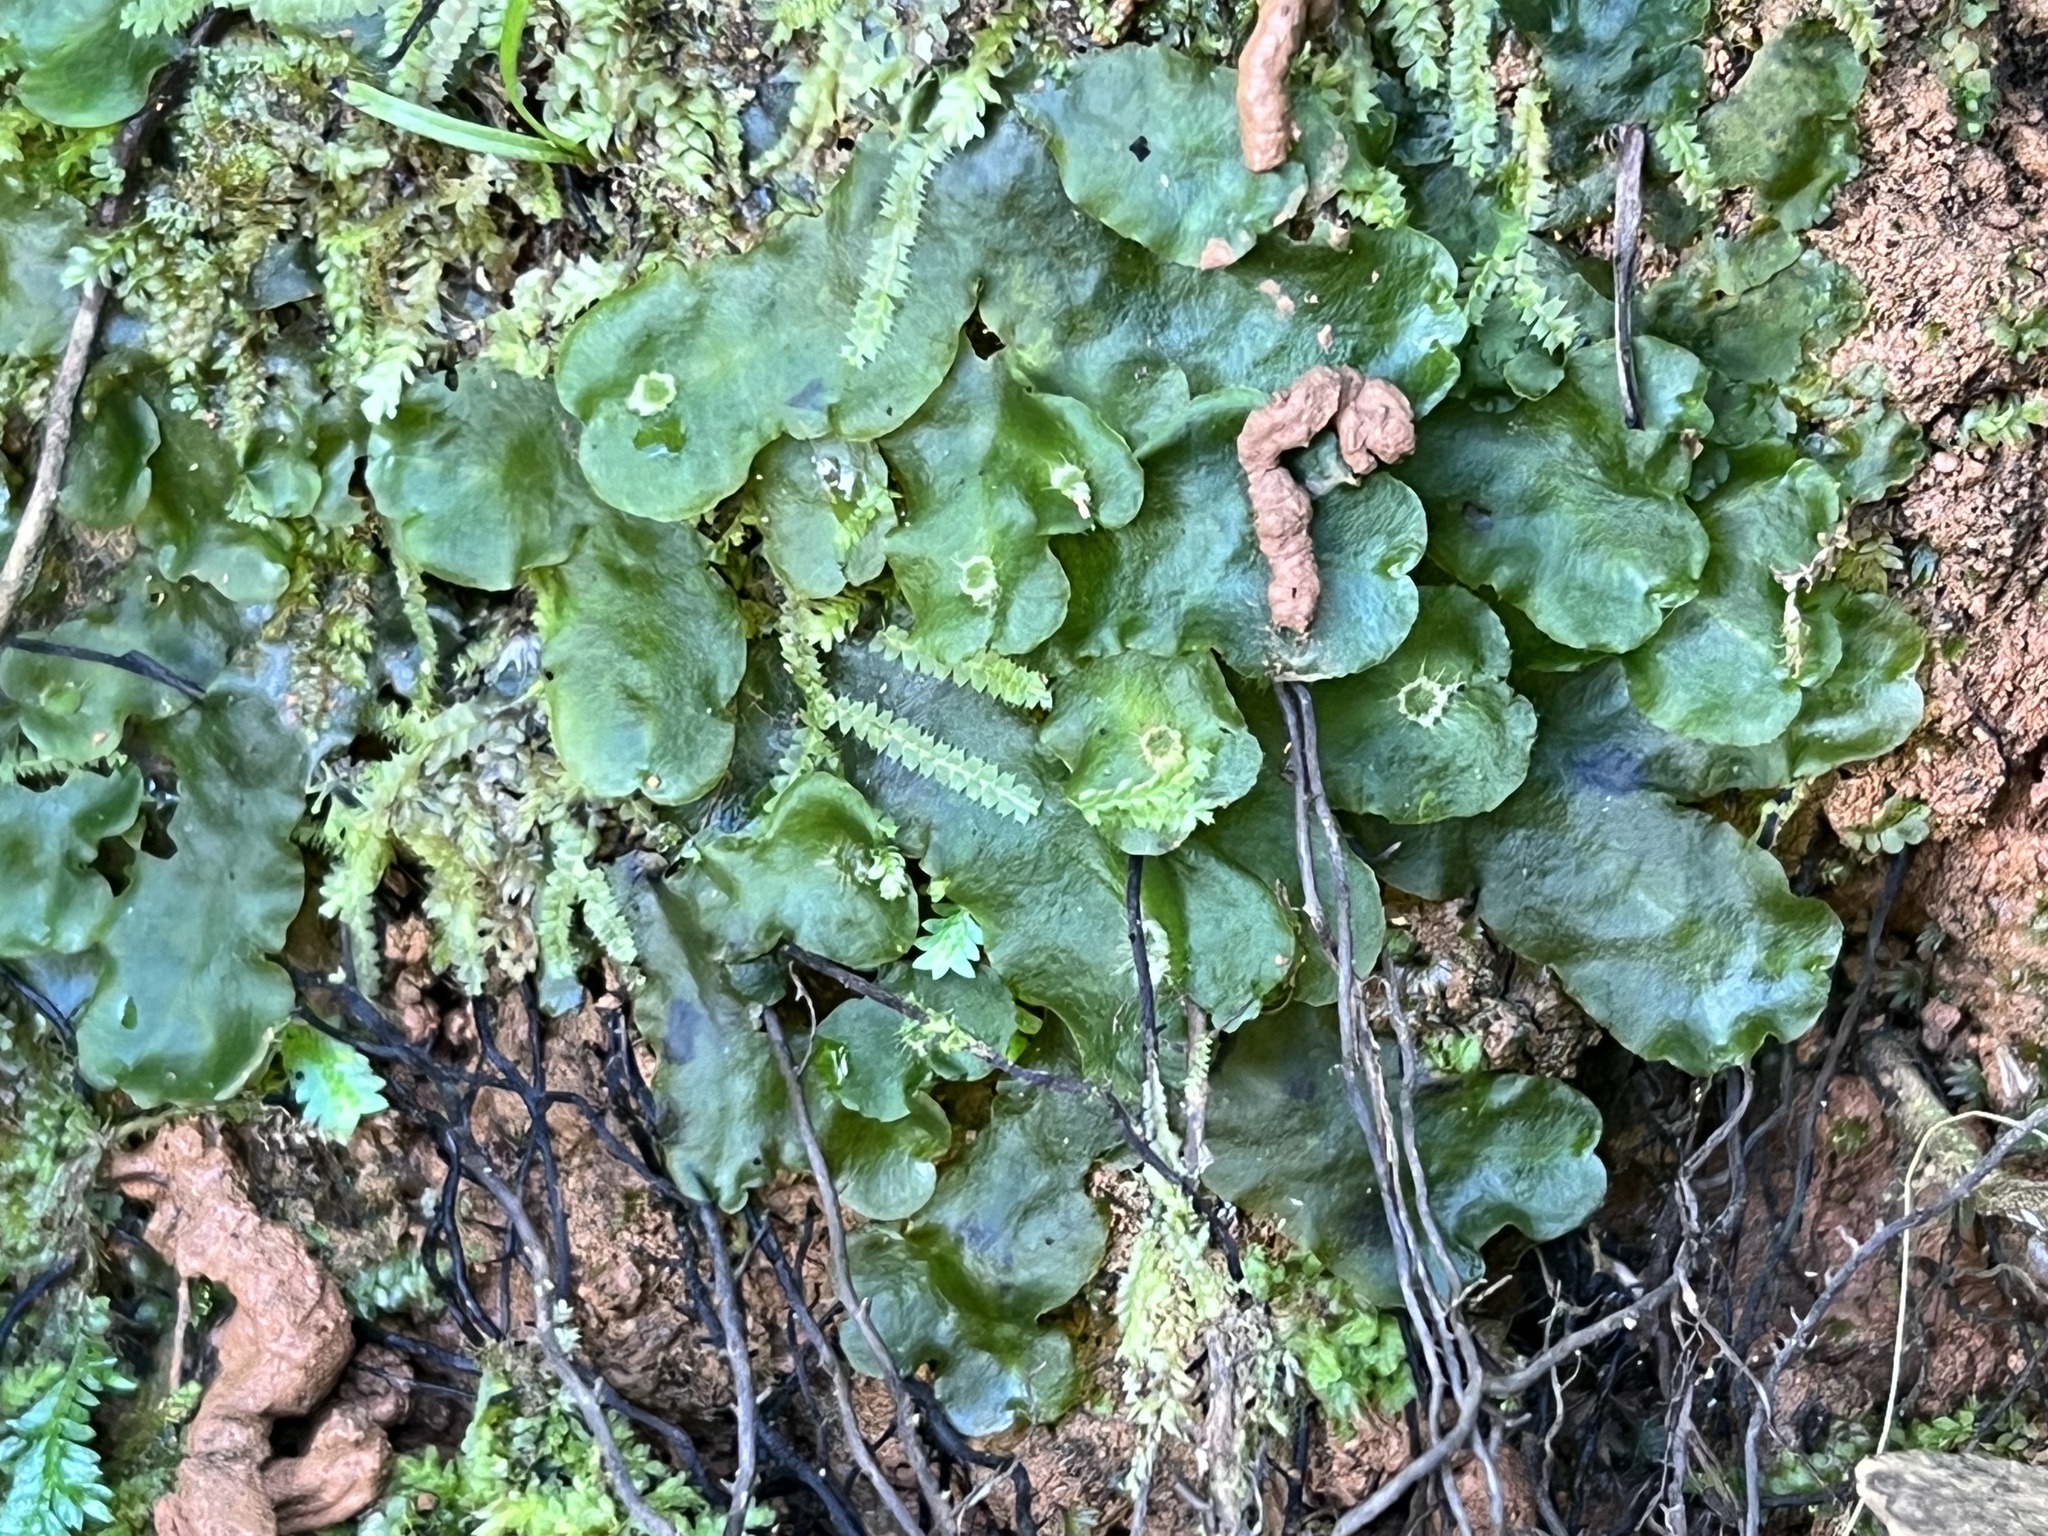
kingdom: Plantae
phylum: Marchantiophyta
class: Marchantiopsida
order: Marchantiales
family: Dumortieraceae
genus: Dumortiera
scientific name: Dumortiera hirsuta
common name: Dumortier's liverwort
